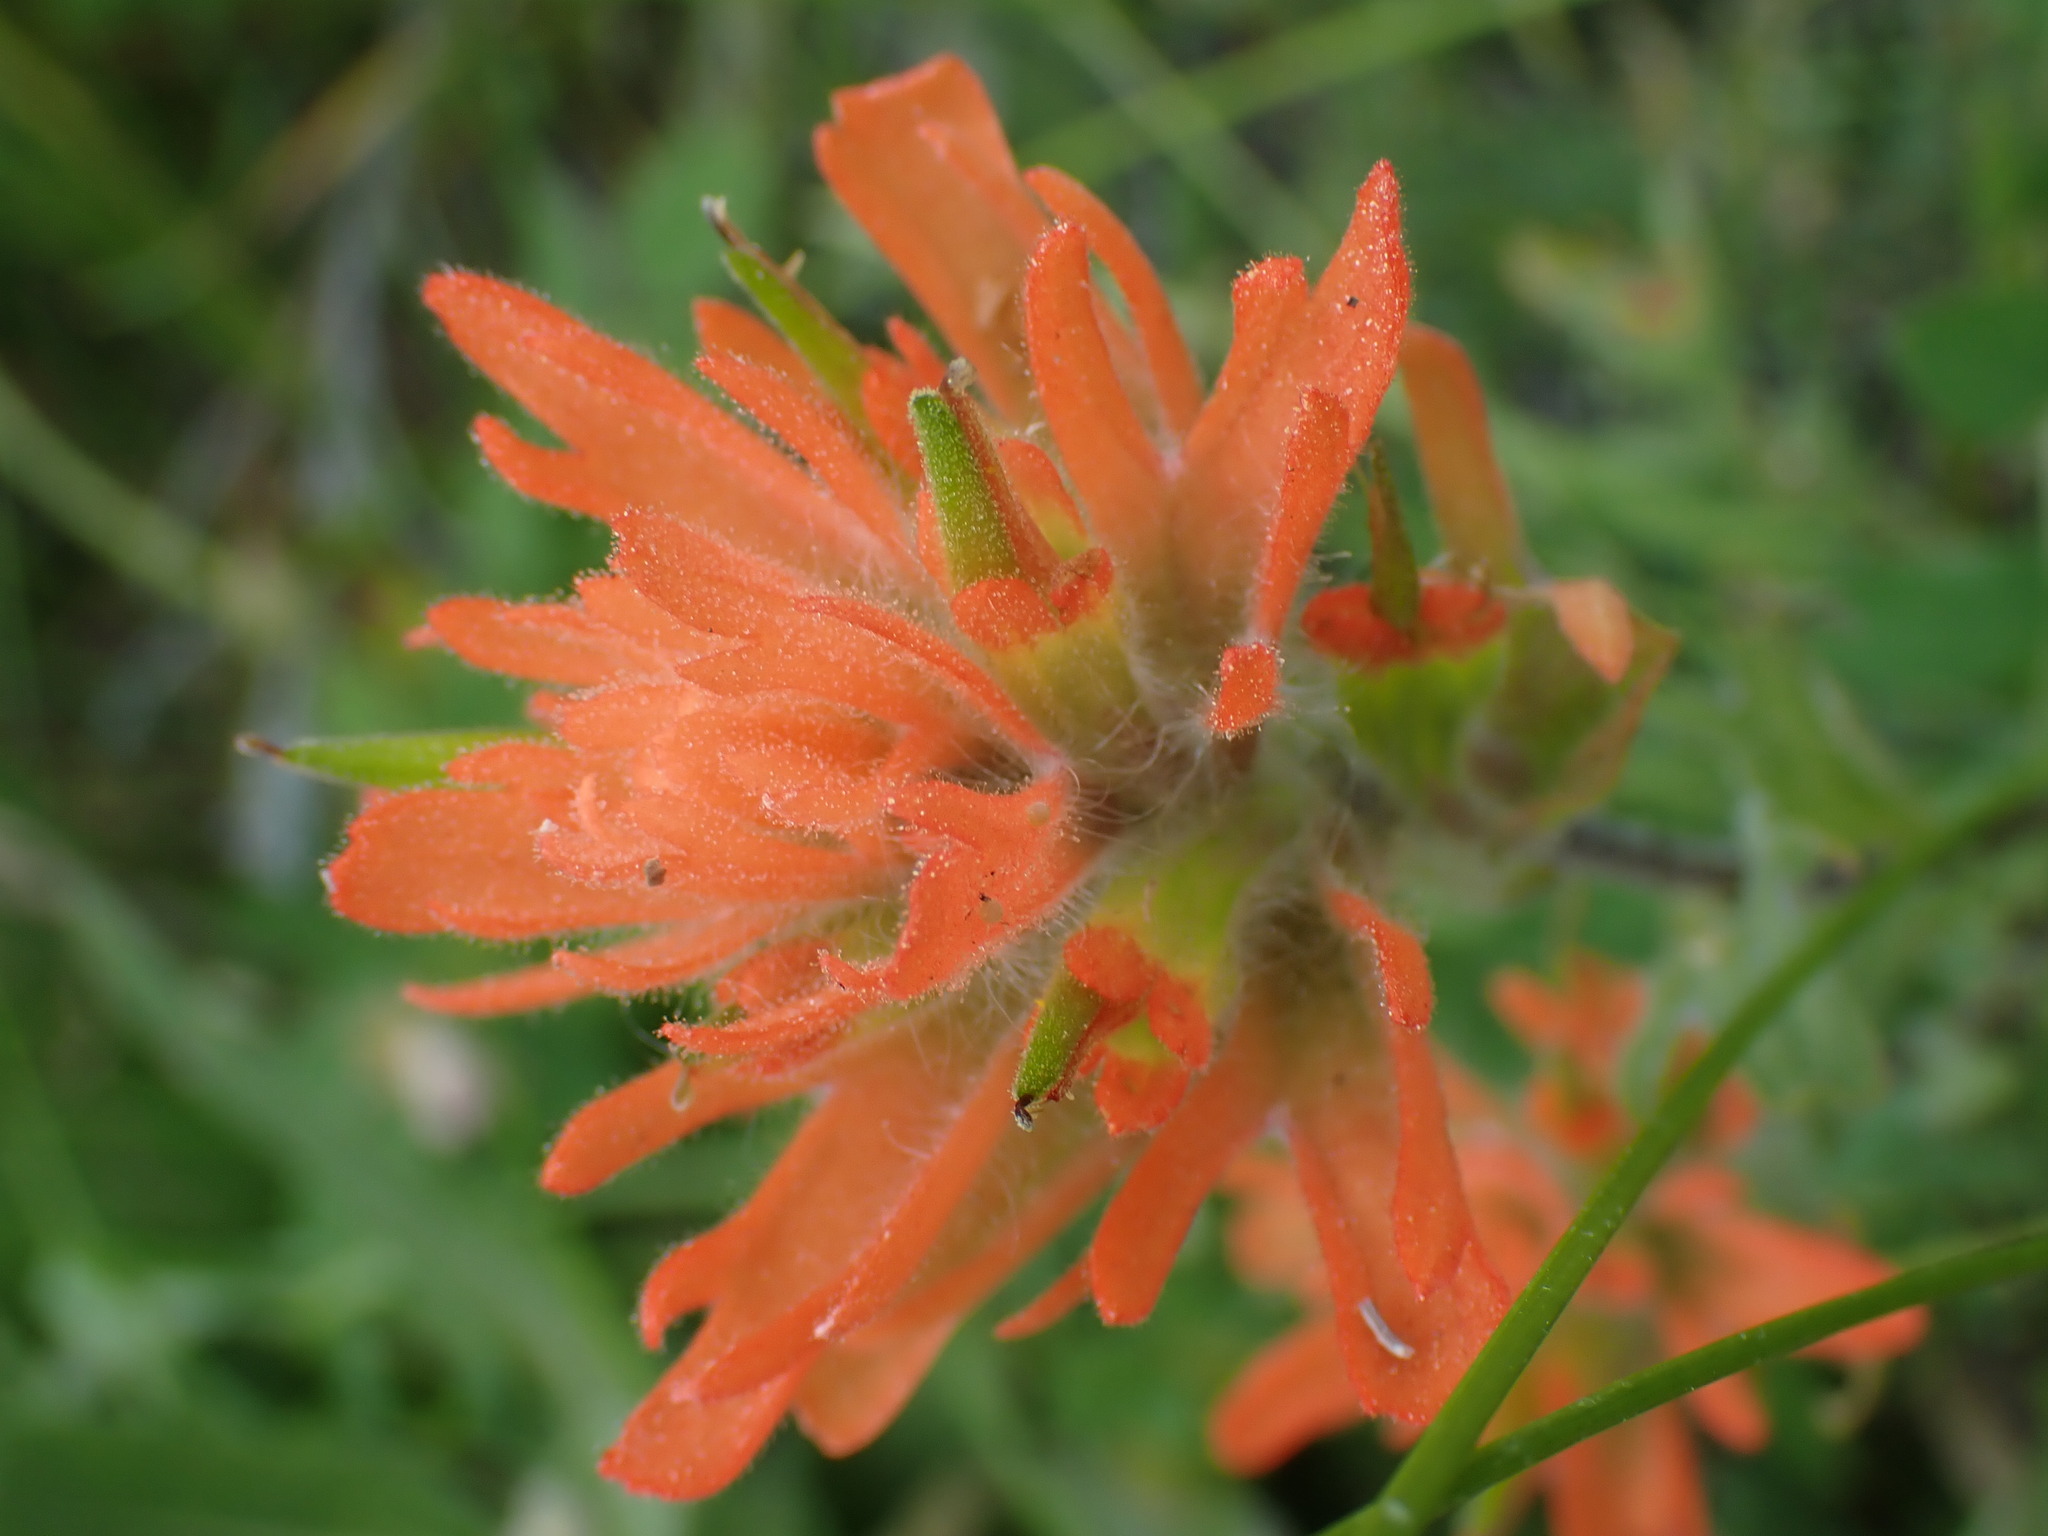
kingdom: Plantae
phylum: Tracheophyta
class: Magnoliopsida
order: Lamiales
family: Orobanchaceae
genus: Castilleja
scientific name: Castilleja hispida
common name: Bristly paintbrush
